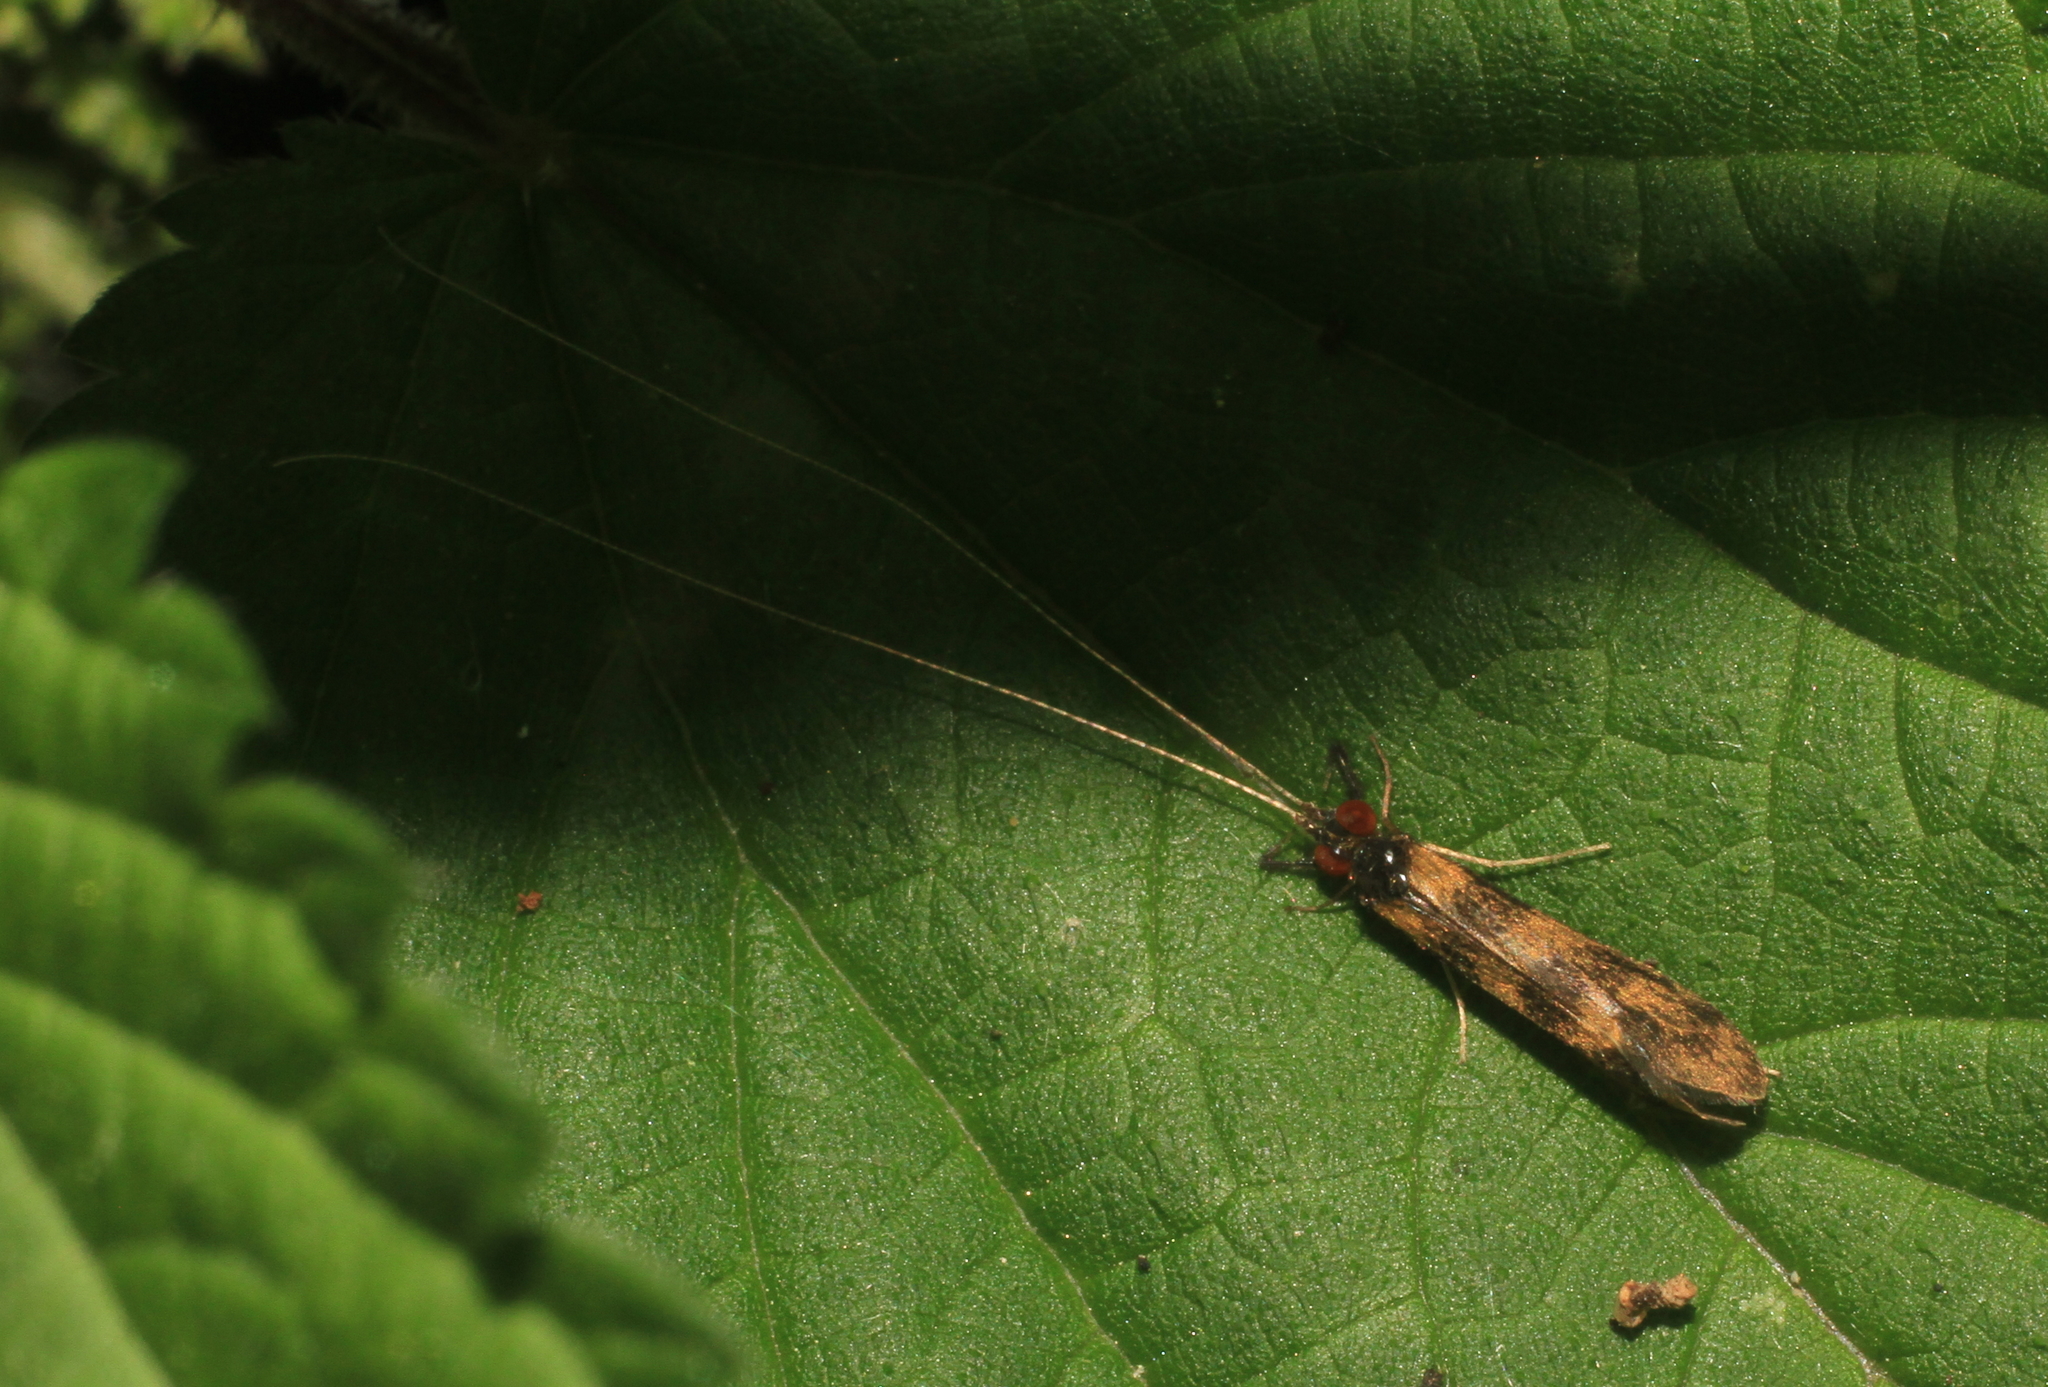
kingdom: Animalia
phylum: Arthropoda
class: Insecta
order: Trichoptera
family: Leptoceridae
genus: Mystacides
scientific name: Mystacides longicornis
